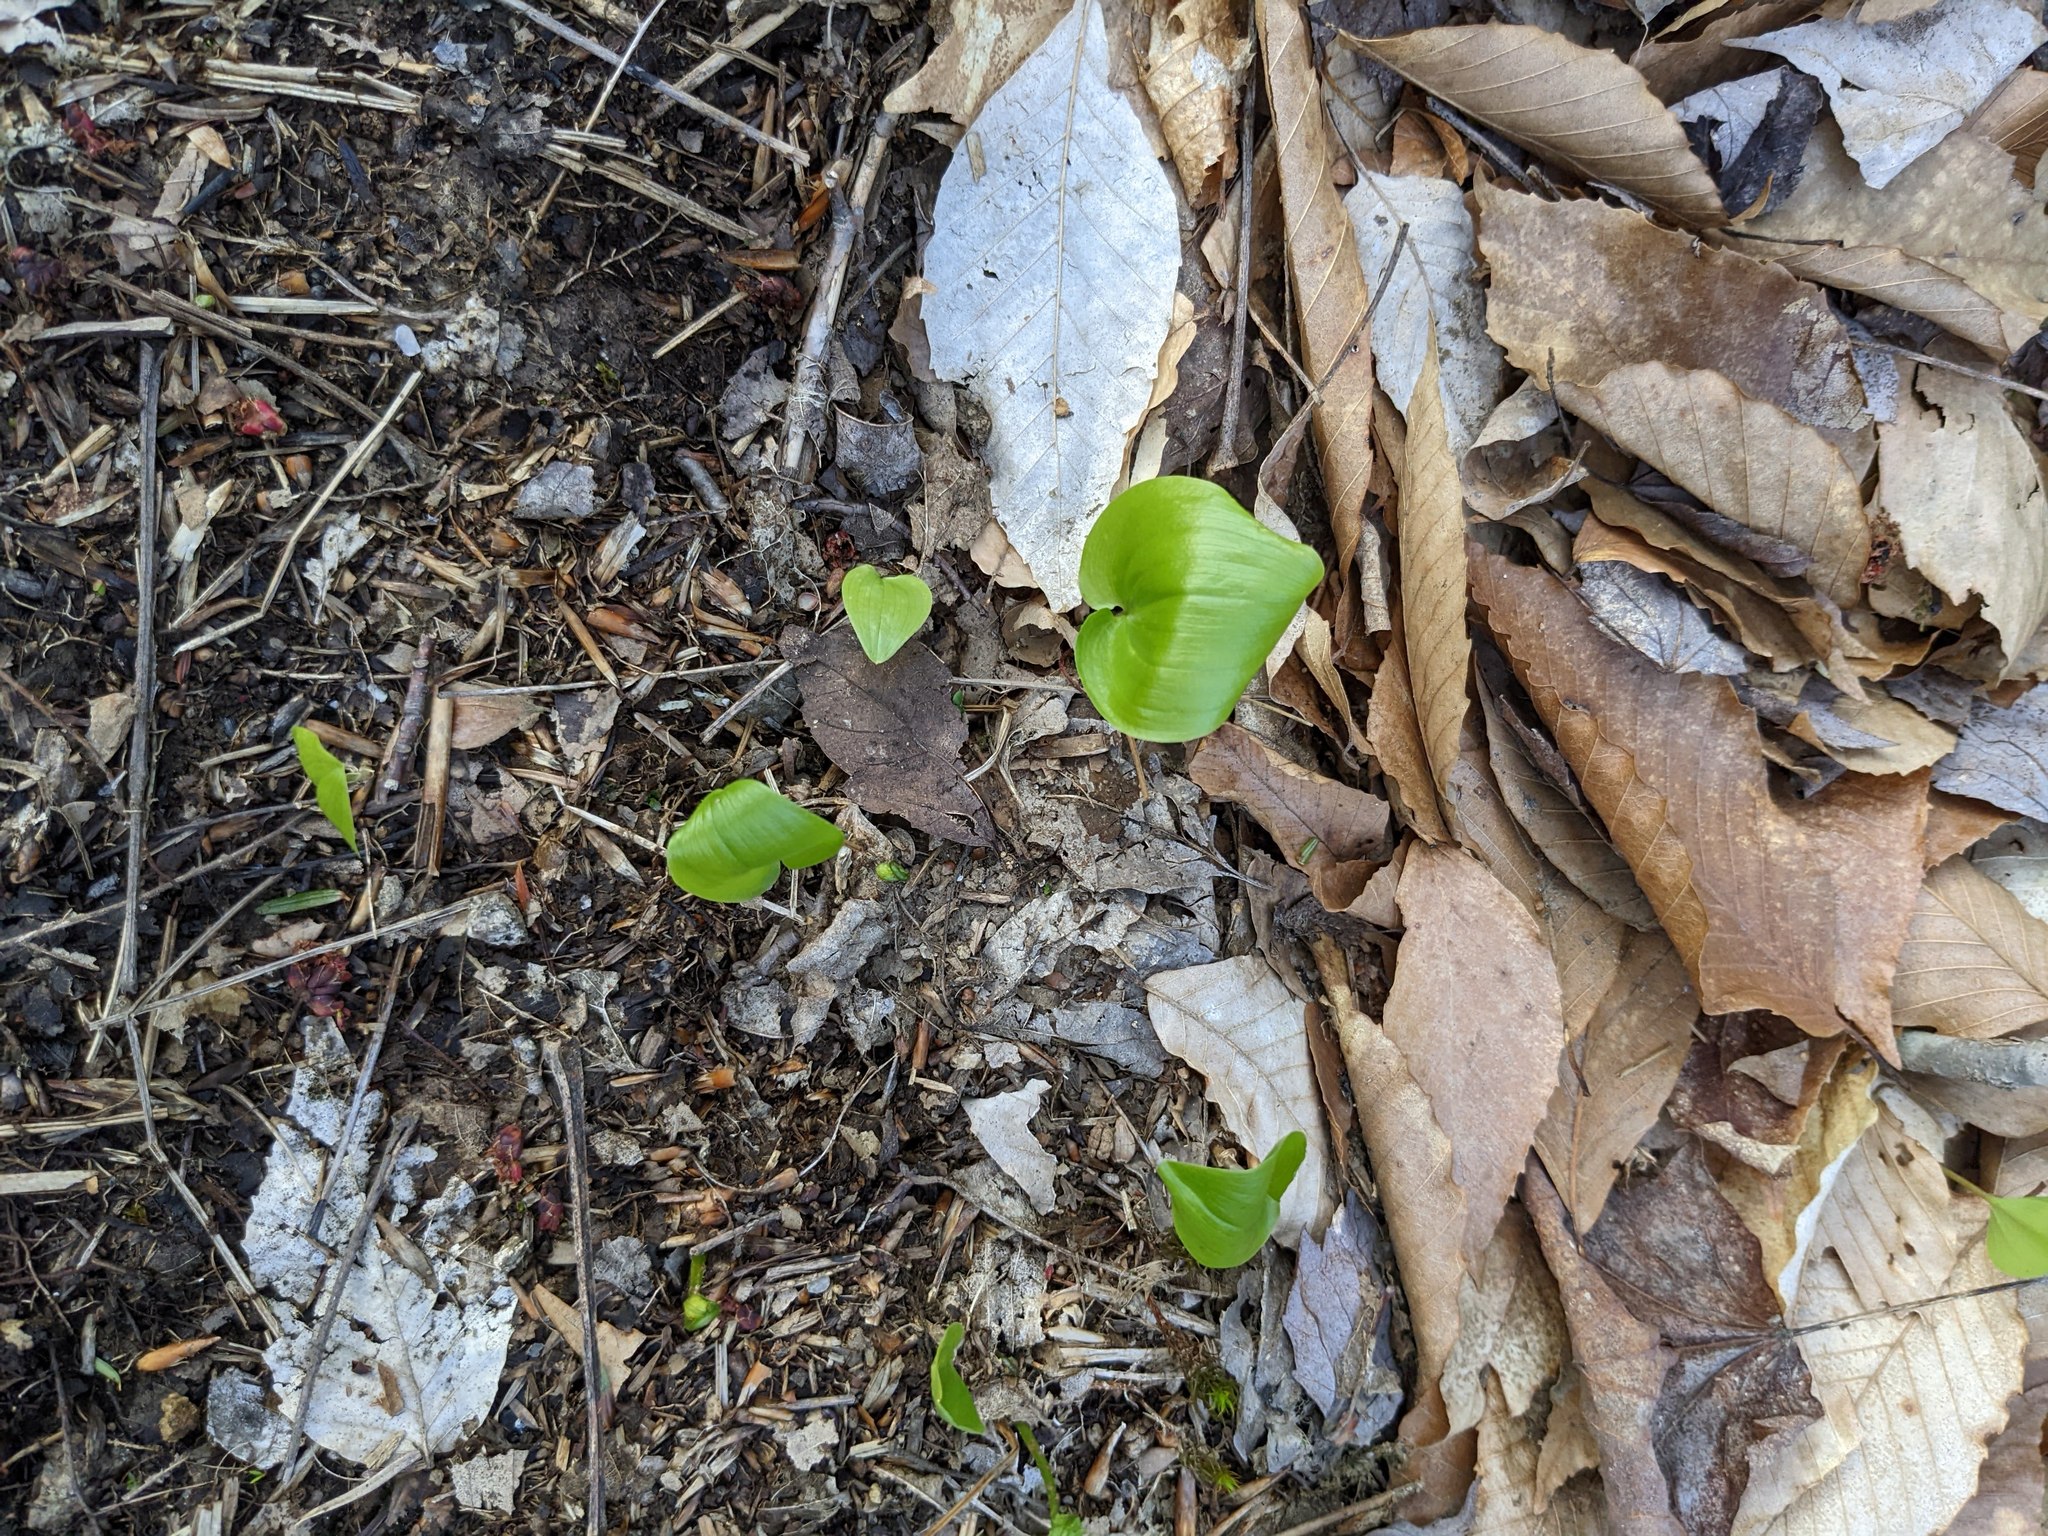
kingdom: Plantae
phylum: Tracheophyta
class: Liliopsida
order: Asparagales
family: Asparagaceae
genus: Maianthemum
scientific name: Maianthemum canadense
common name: False lily-of-the-valley
